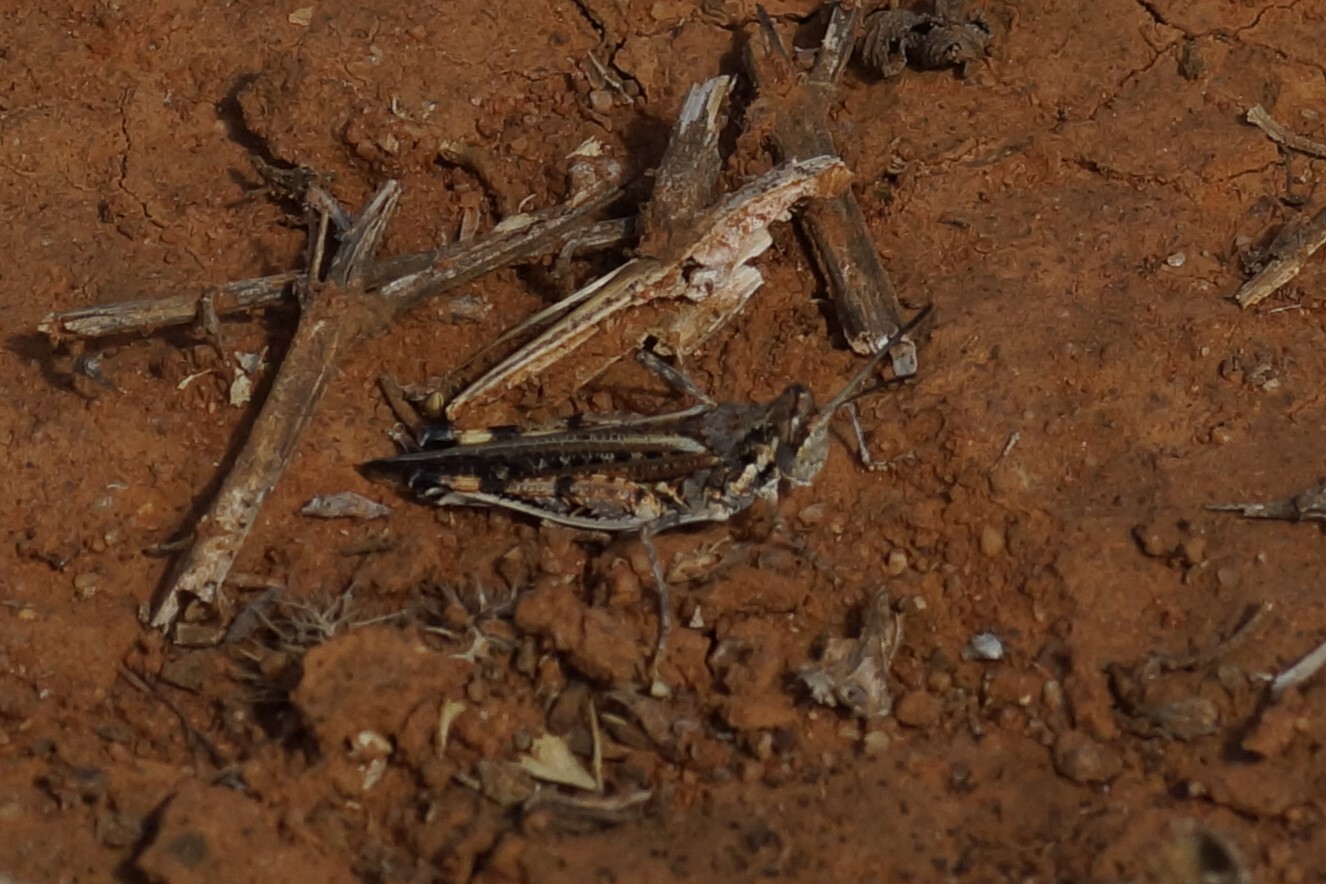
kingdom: Animalia
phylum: Arthropoda
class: Insecta
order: Orthoptera
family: Acrididae
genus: Urnisa
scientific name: Urnisa guttulosa
